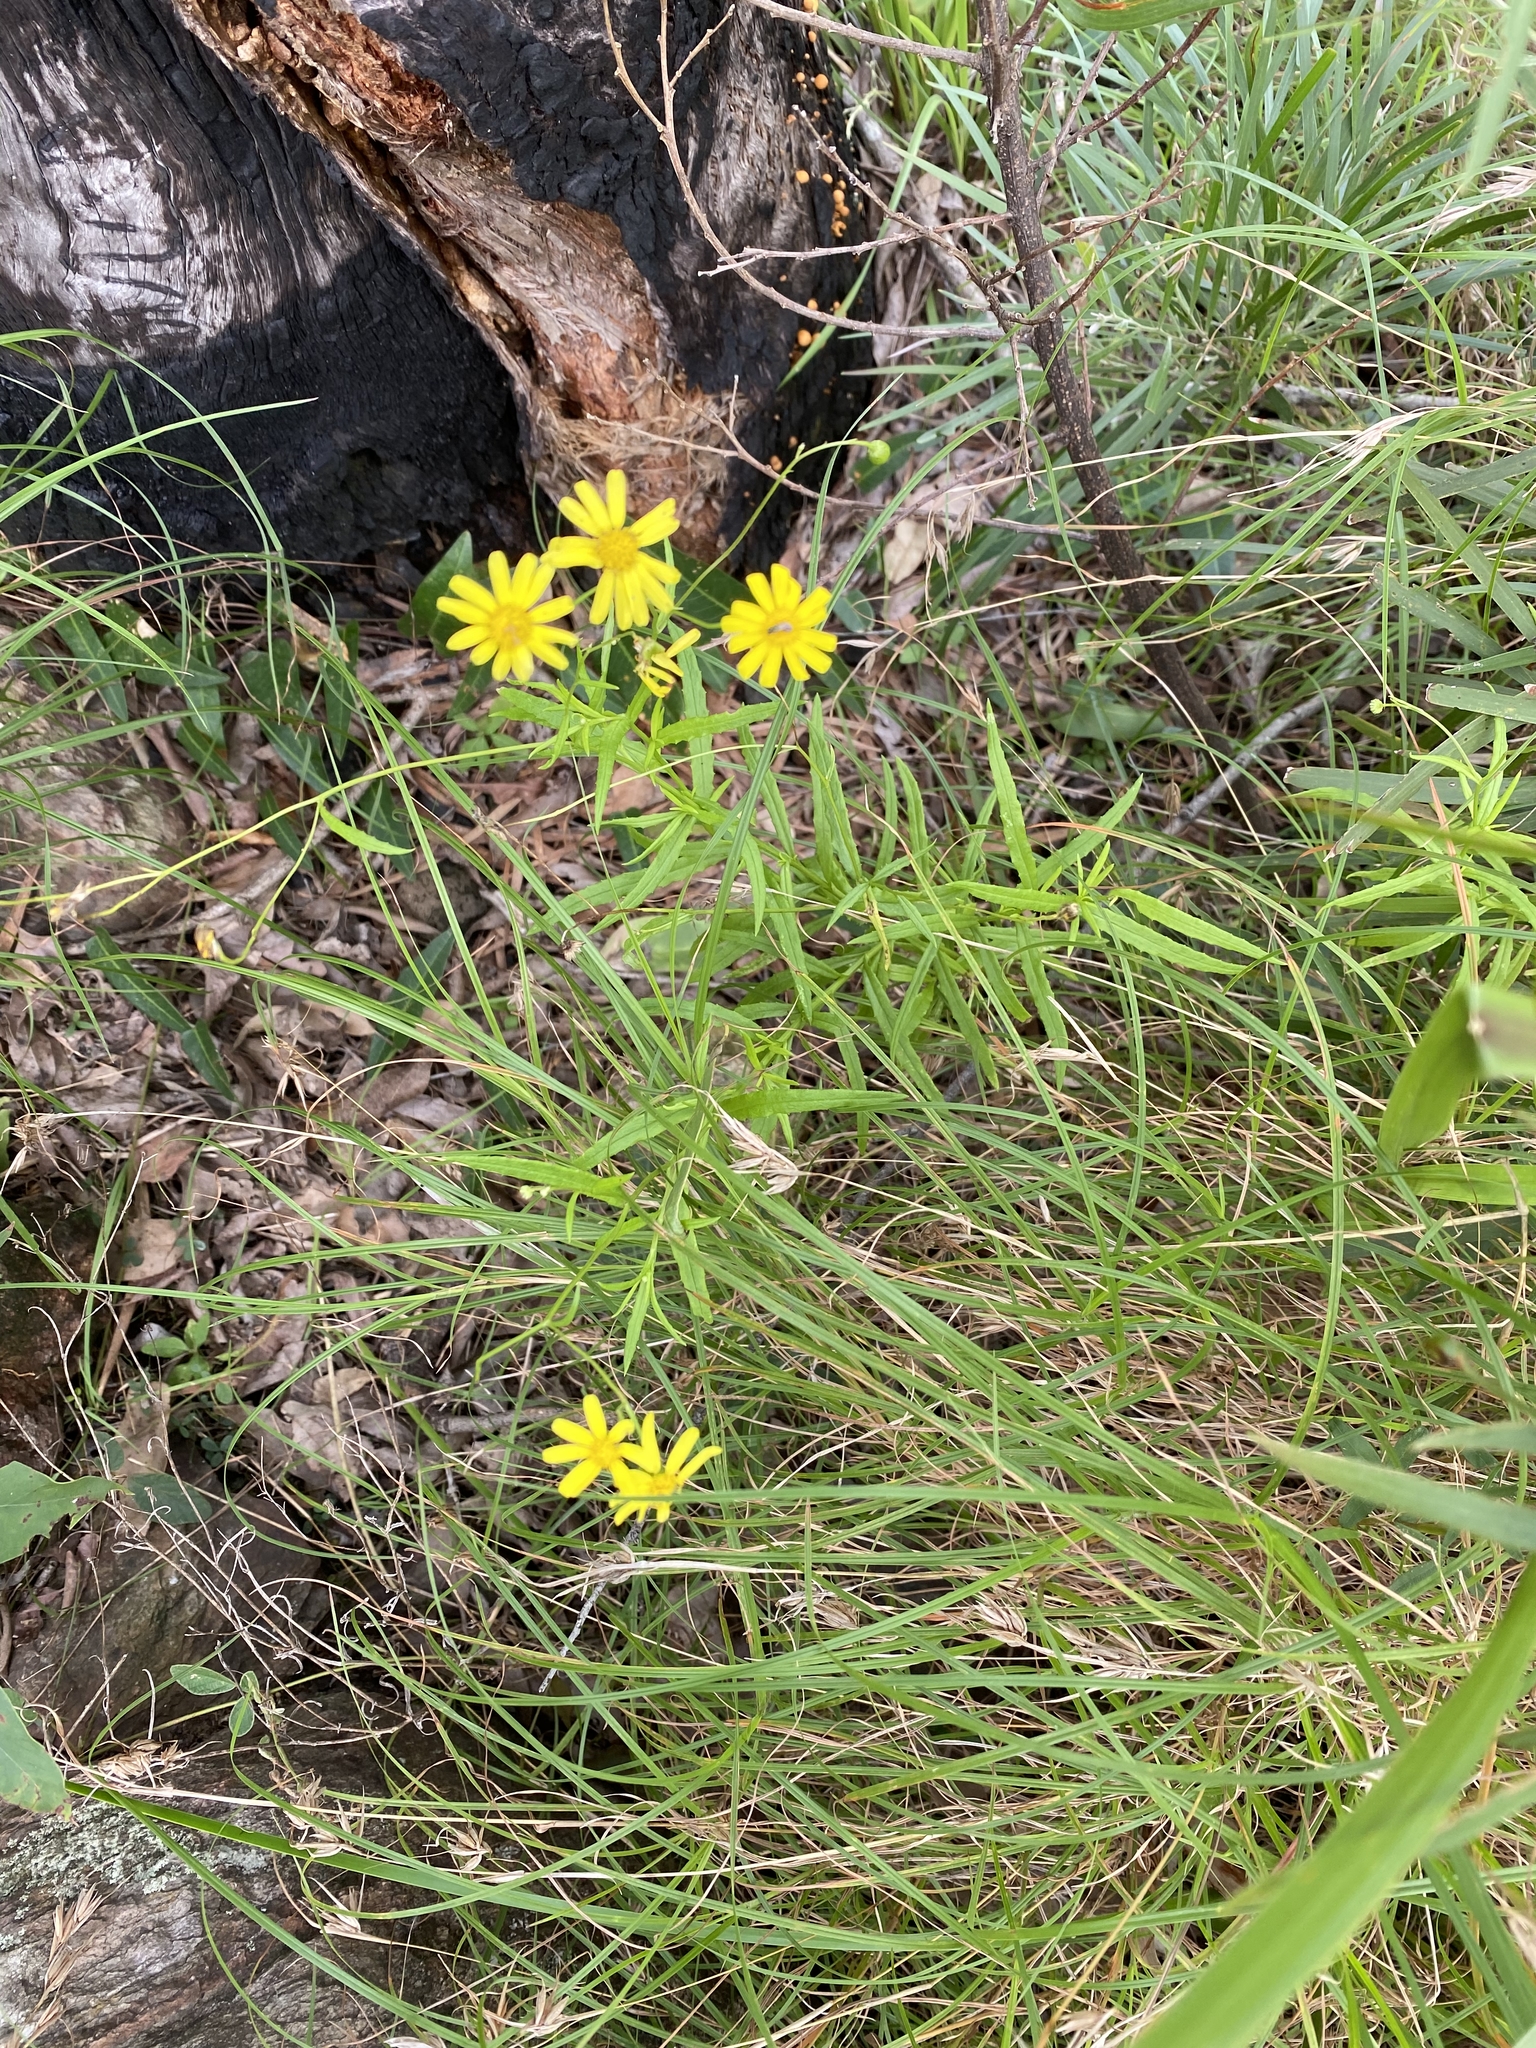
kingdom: Plantae
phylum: Tracheophyta
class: Magnoliopsida
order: Asterales
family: Asteraceae
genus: Senecio
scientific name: Senecio madagascariensis
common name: Madagascar ragwort
